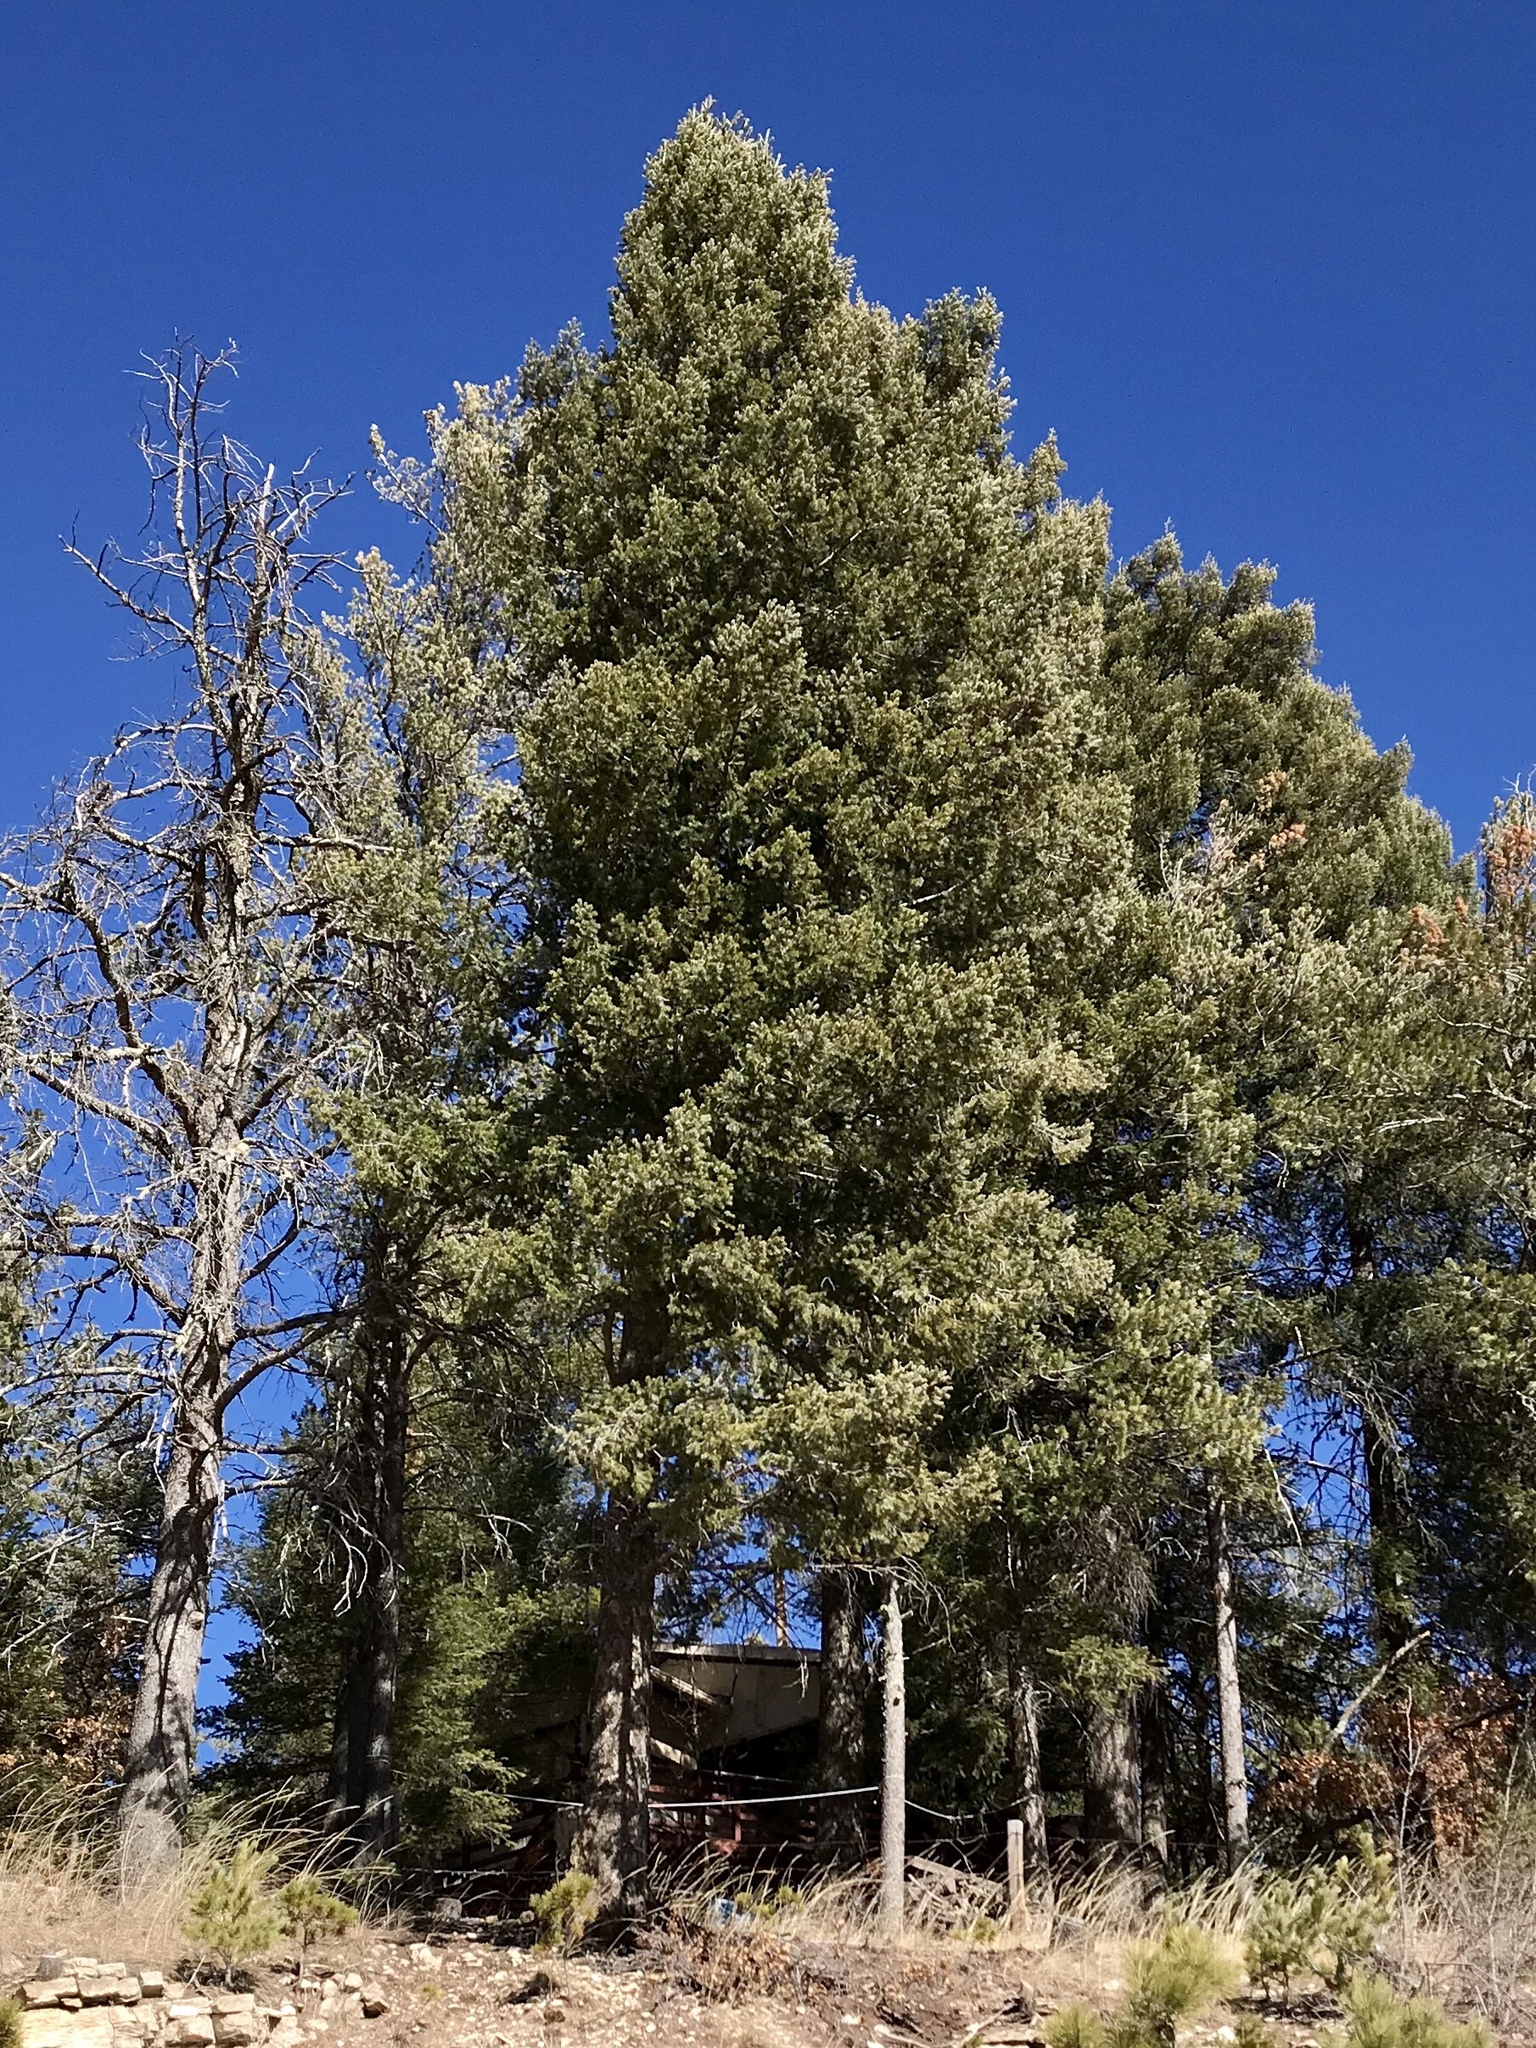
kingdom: Plantae
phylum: Tracheophyta
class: Pinopsida
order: Pinales
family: Pinaceae
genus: Pseudotsuga
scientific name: Pseudotsuga menziesii
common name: Douglas fir
